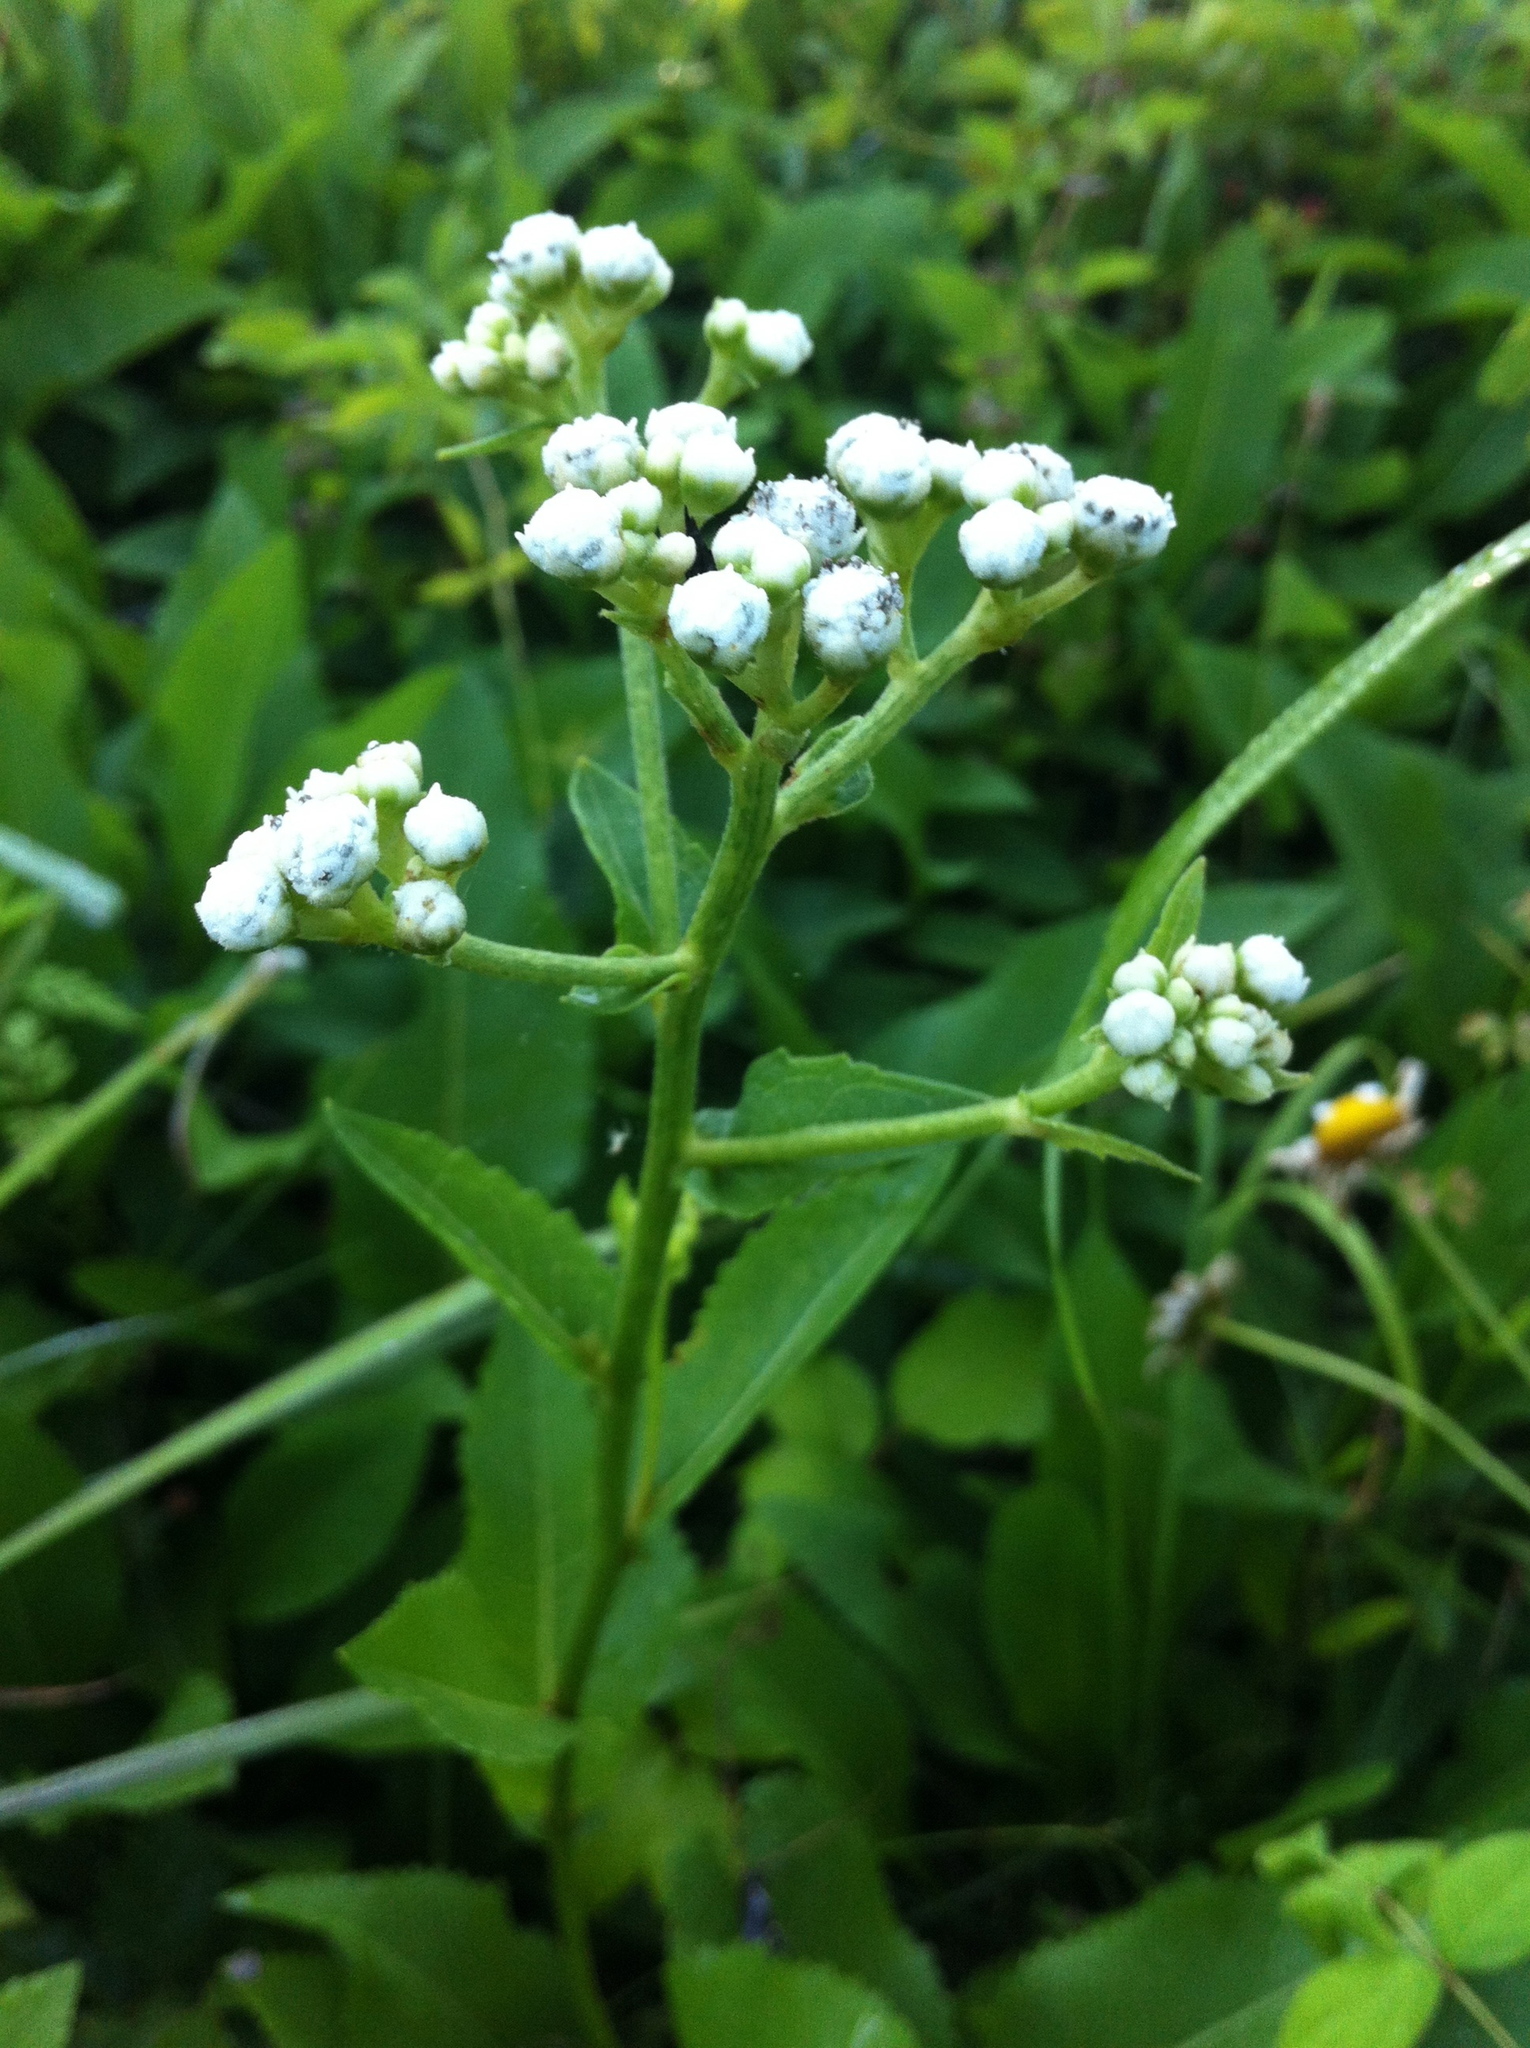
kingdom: Plantae
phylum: Tracheophyta
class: Magnoliopsida
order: Asterales
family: Asteraceae
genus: Parthenium
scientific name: Parthenium integrifolium
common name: American feverfew
